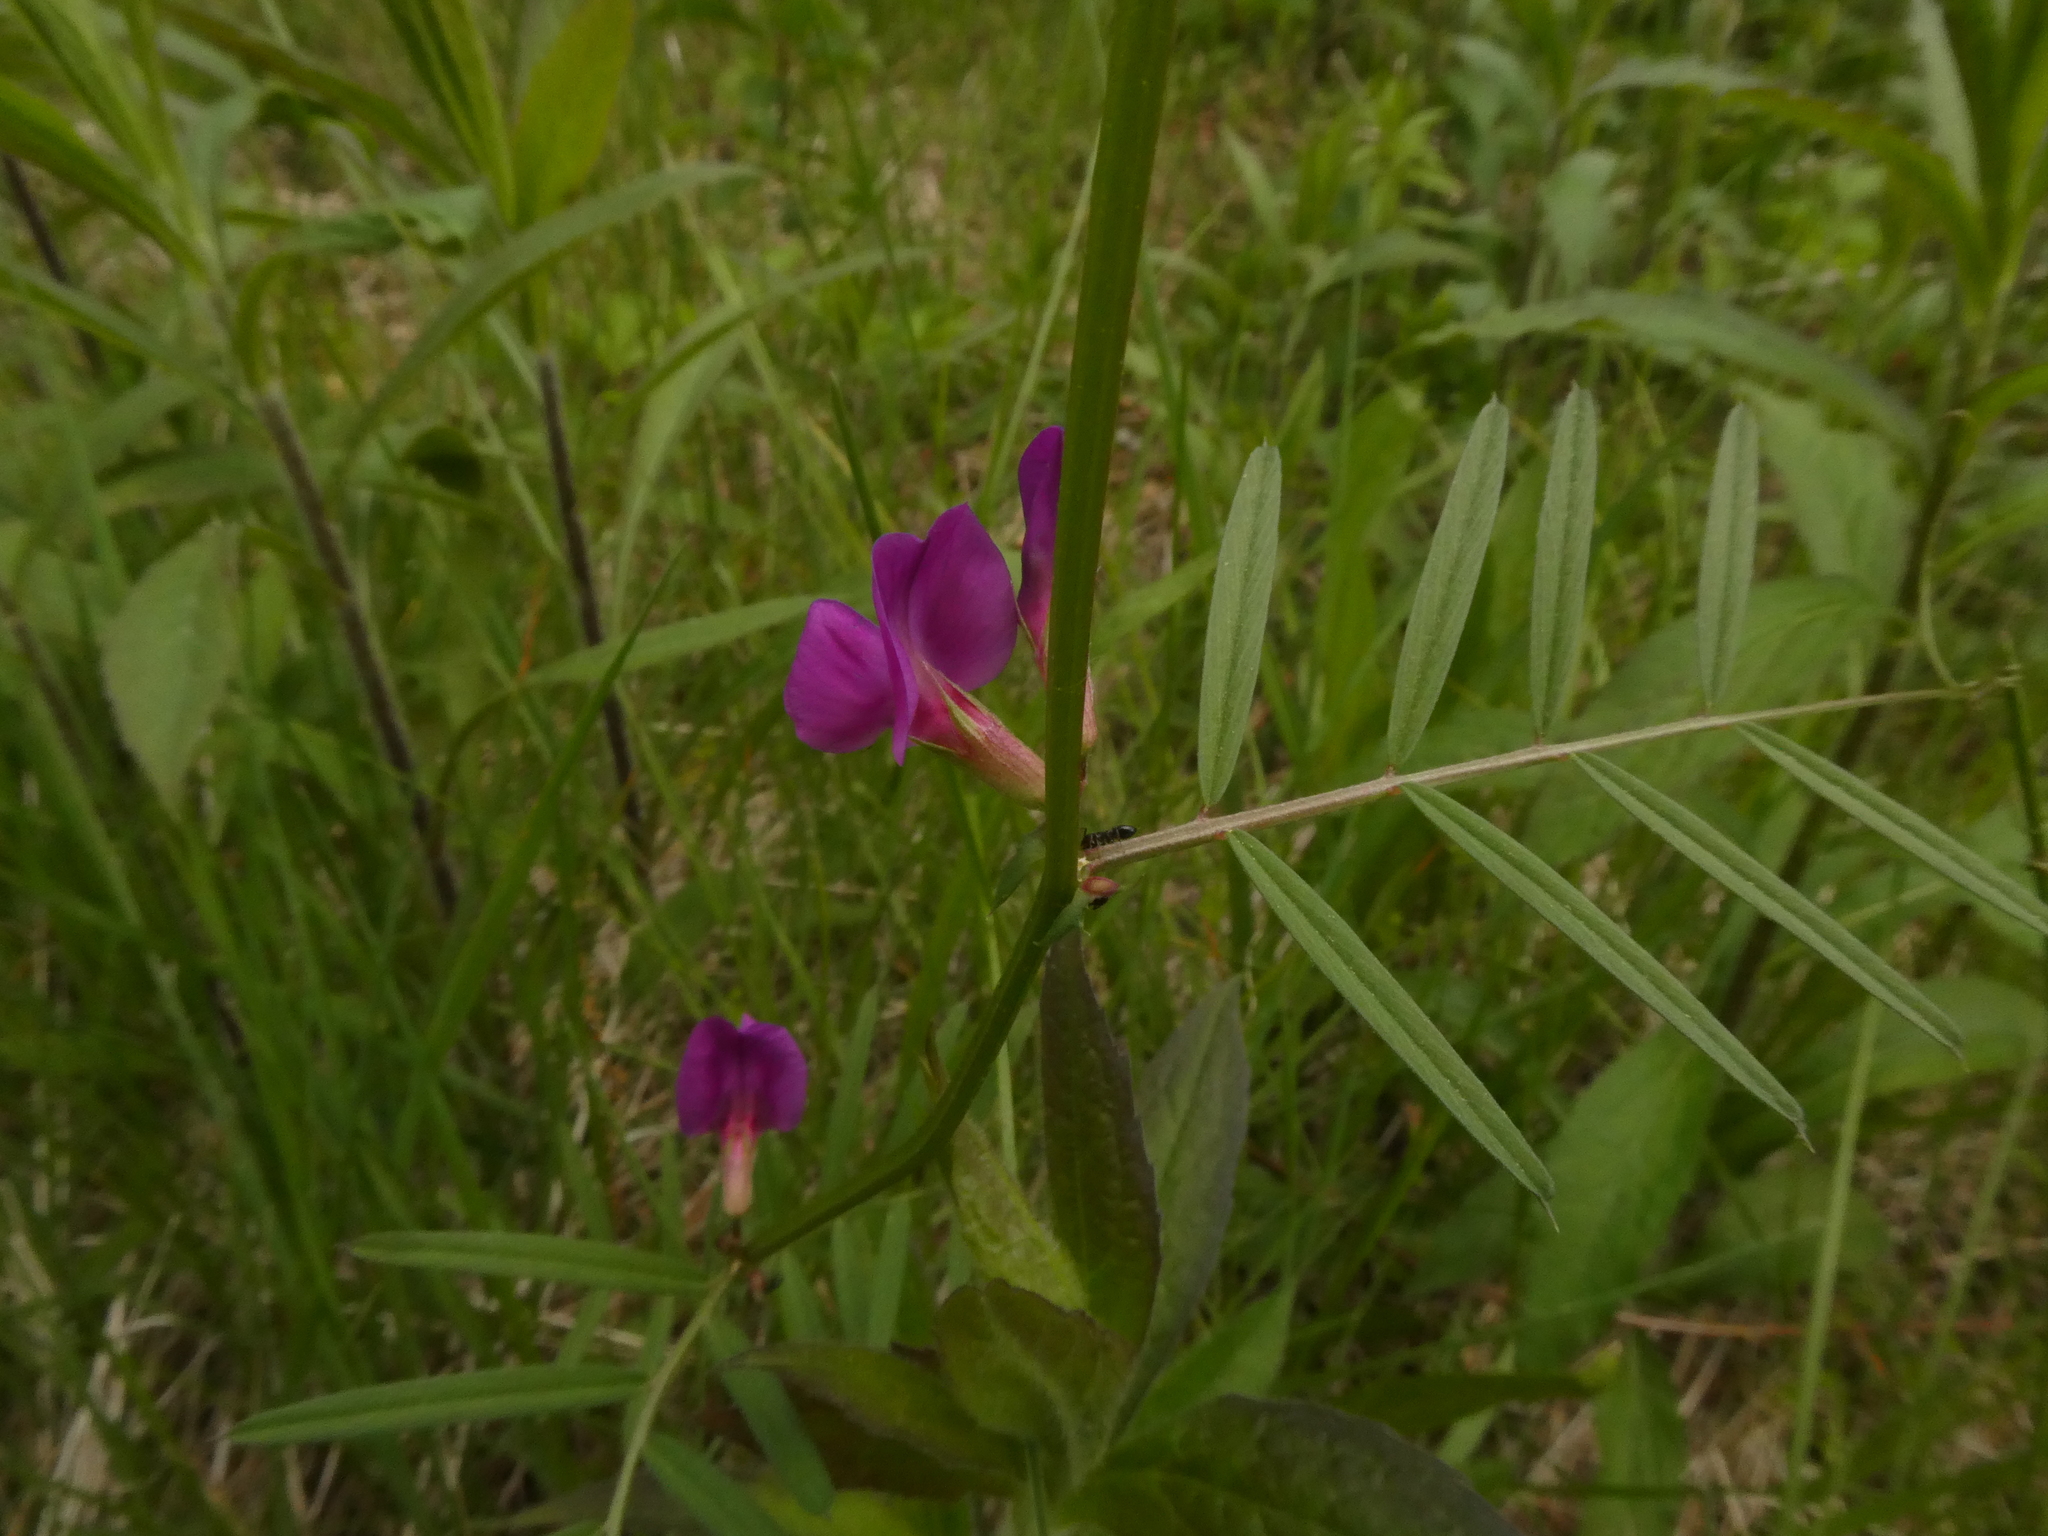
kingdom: Plantae
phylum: Tracheophyta
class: Magnoliopsida
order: Fabales
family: Fabaceae
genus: Vicia
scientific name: Vicia sativa
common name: Garden vetch
